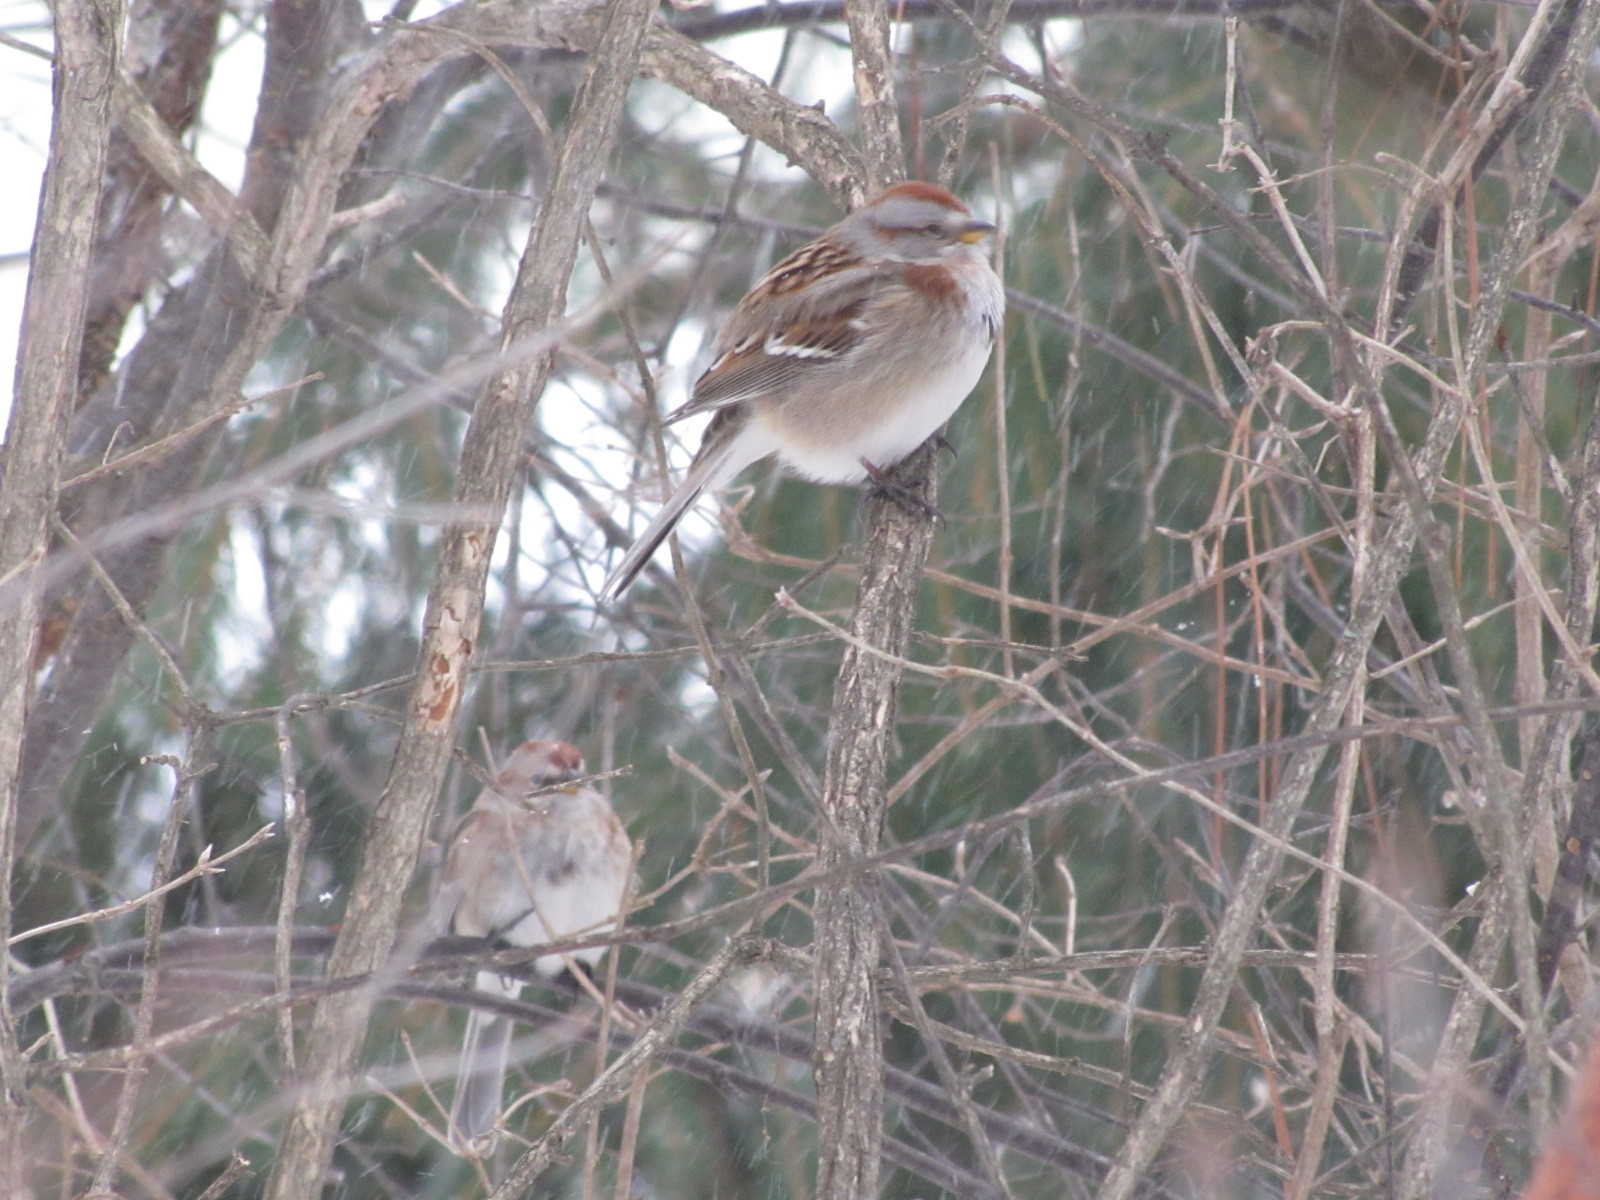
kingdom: Animalia
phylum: Chordata
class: Aves
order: Passeriformes
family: Passerellidae
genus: Spizelloides
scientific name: Spizelloides arborea
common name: American tree sparrow
